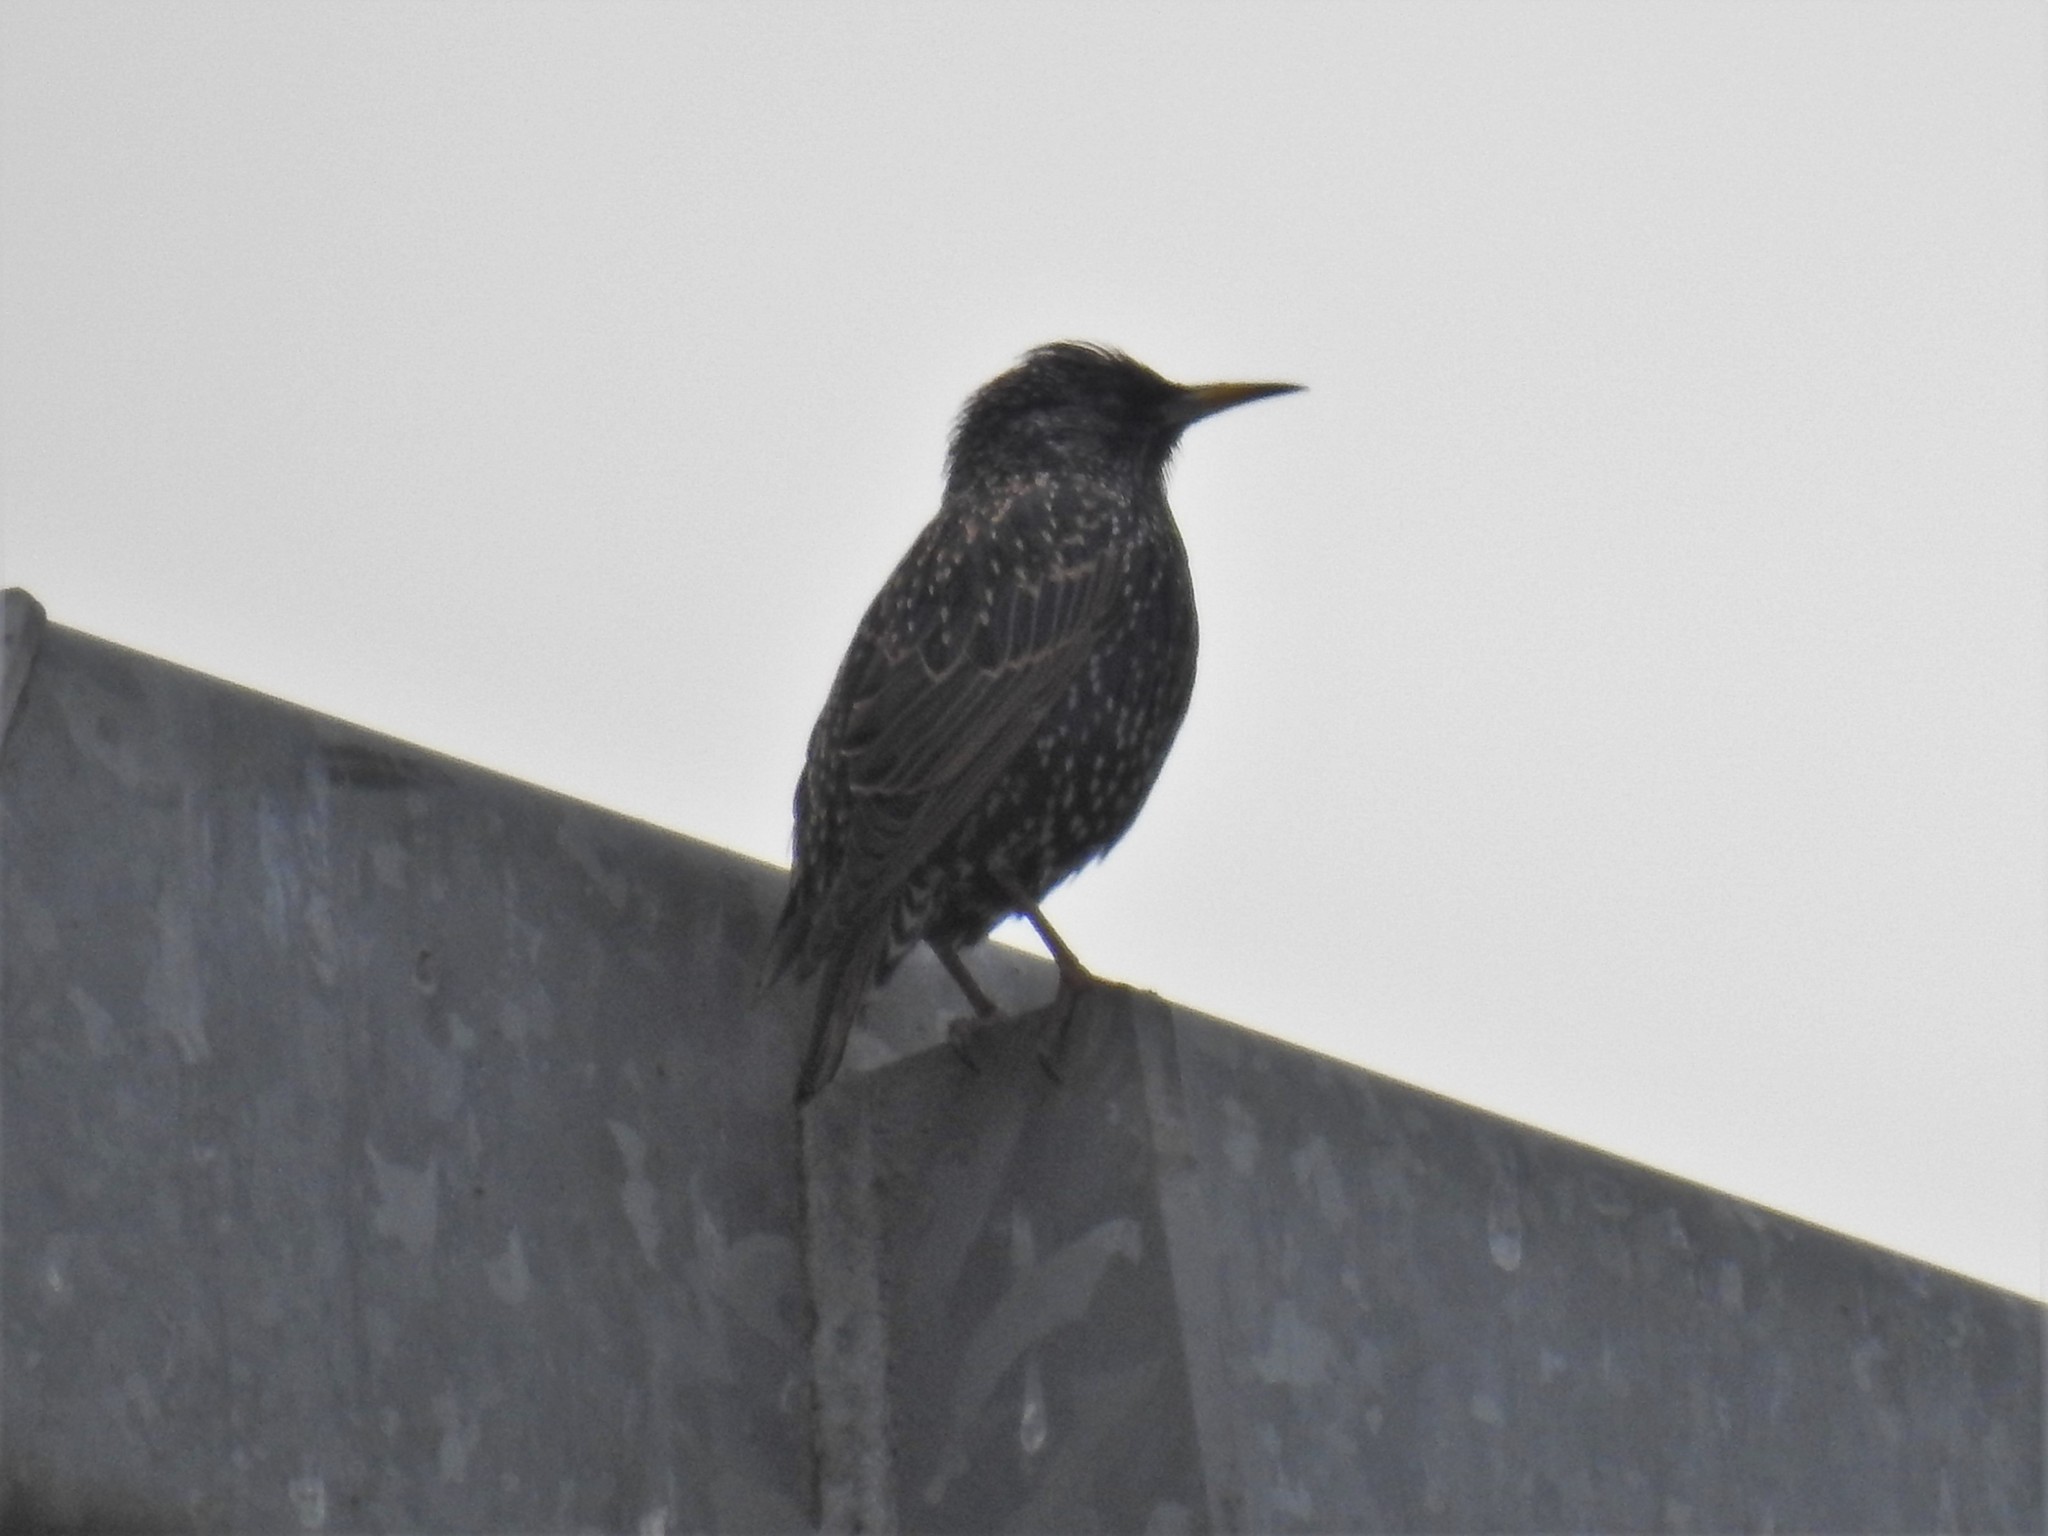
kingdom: Animalia
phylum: Chordata
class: Aves
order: Passeriformes
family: Sturnidae
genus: Sturnus
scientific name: Sturnus vulgaris
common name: Common starling
